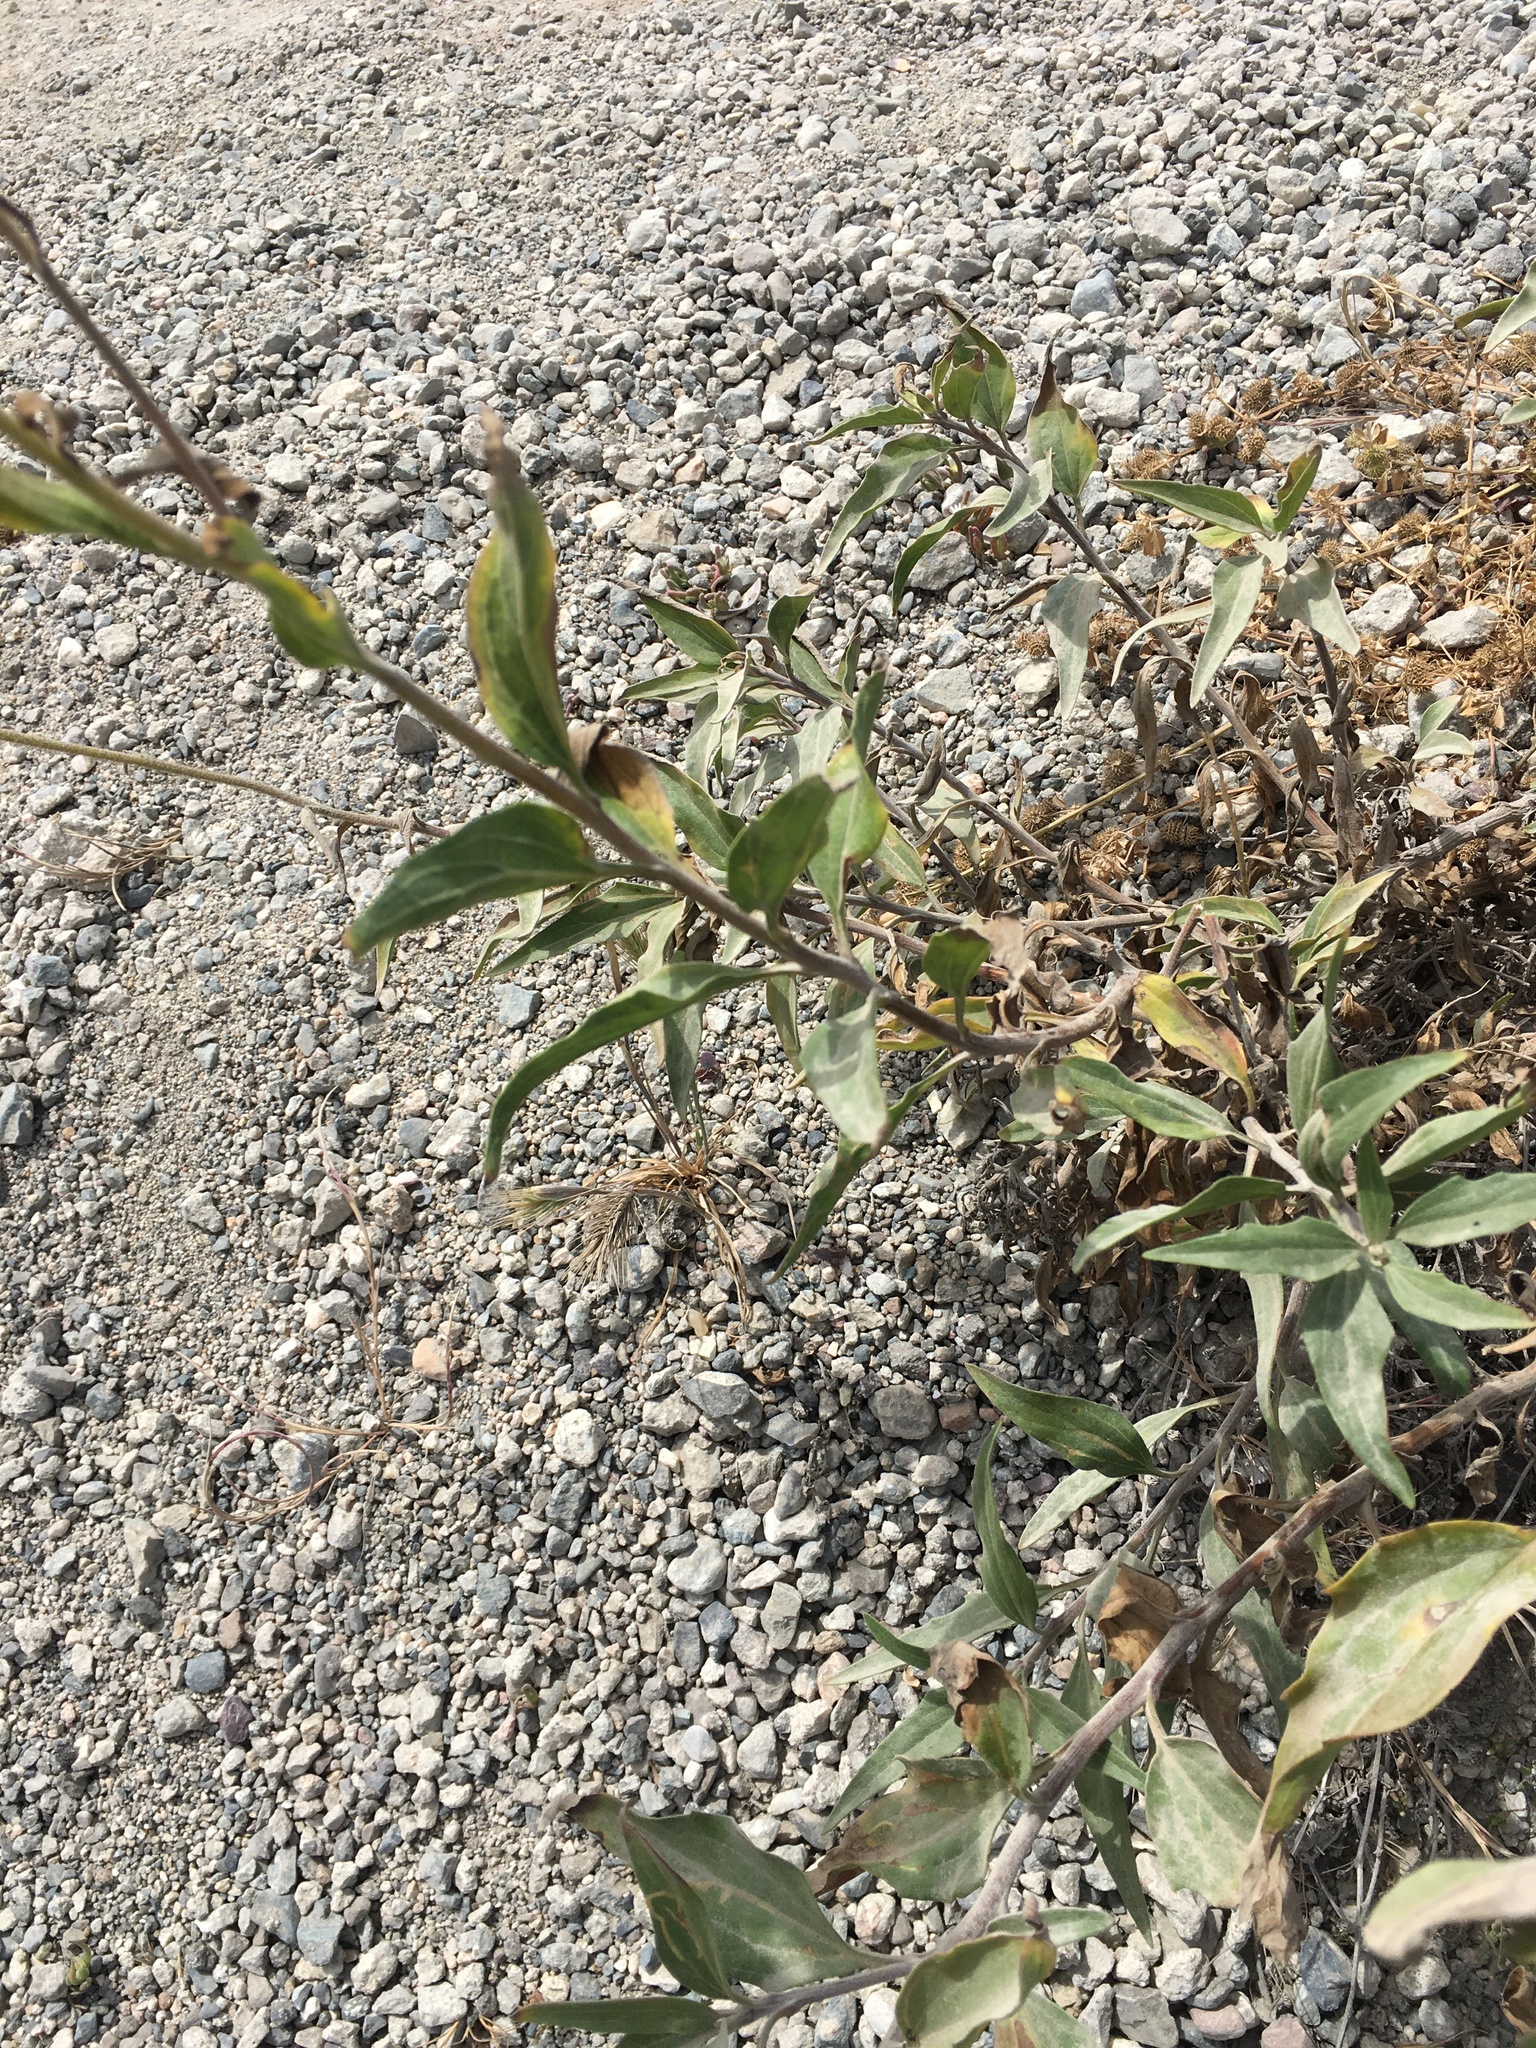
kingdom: Plantae
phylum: Tracheophyta
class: Magnoliopsida
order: Asterales
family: Asteraceae
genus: Encelia
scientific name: Encelia californica
